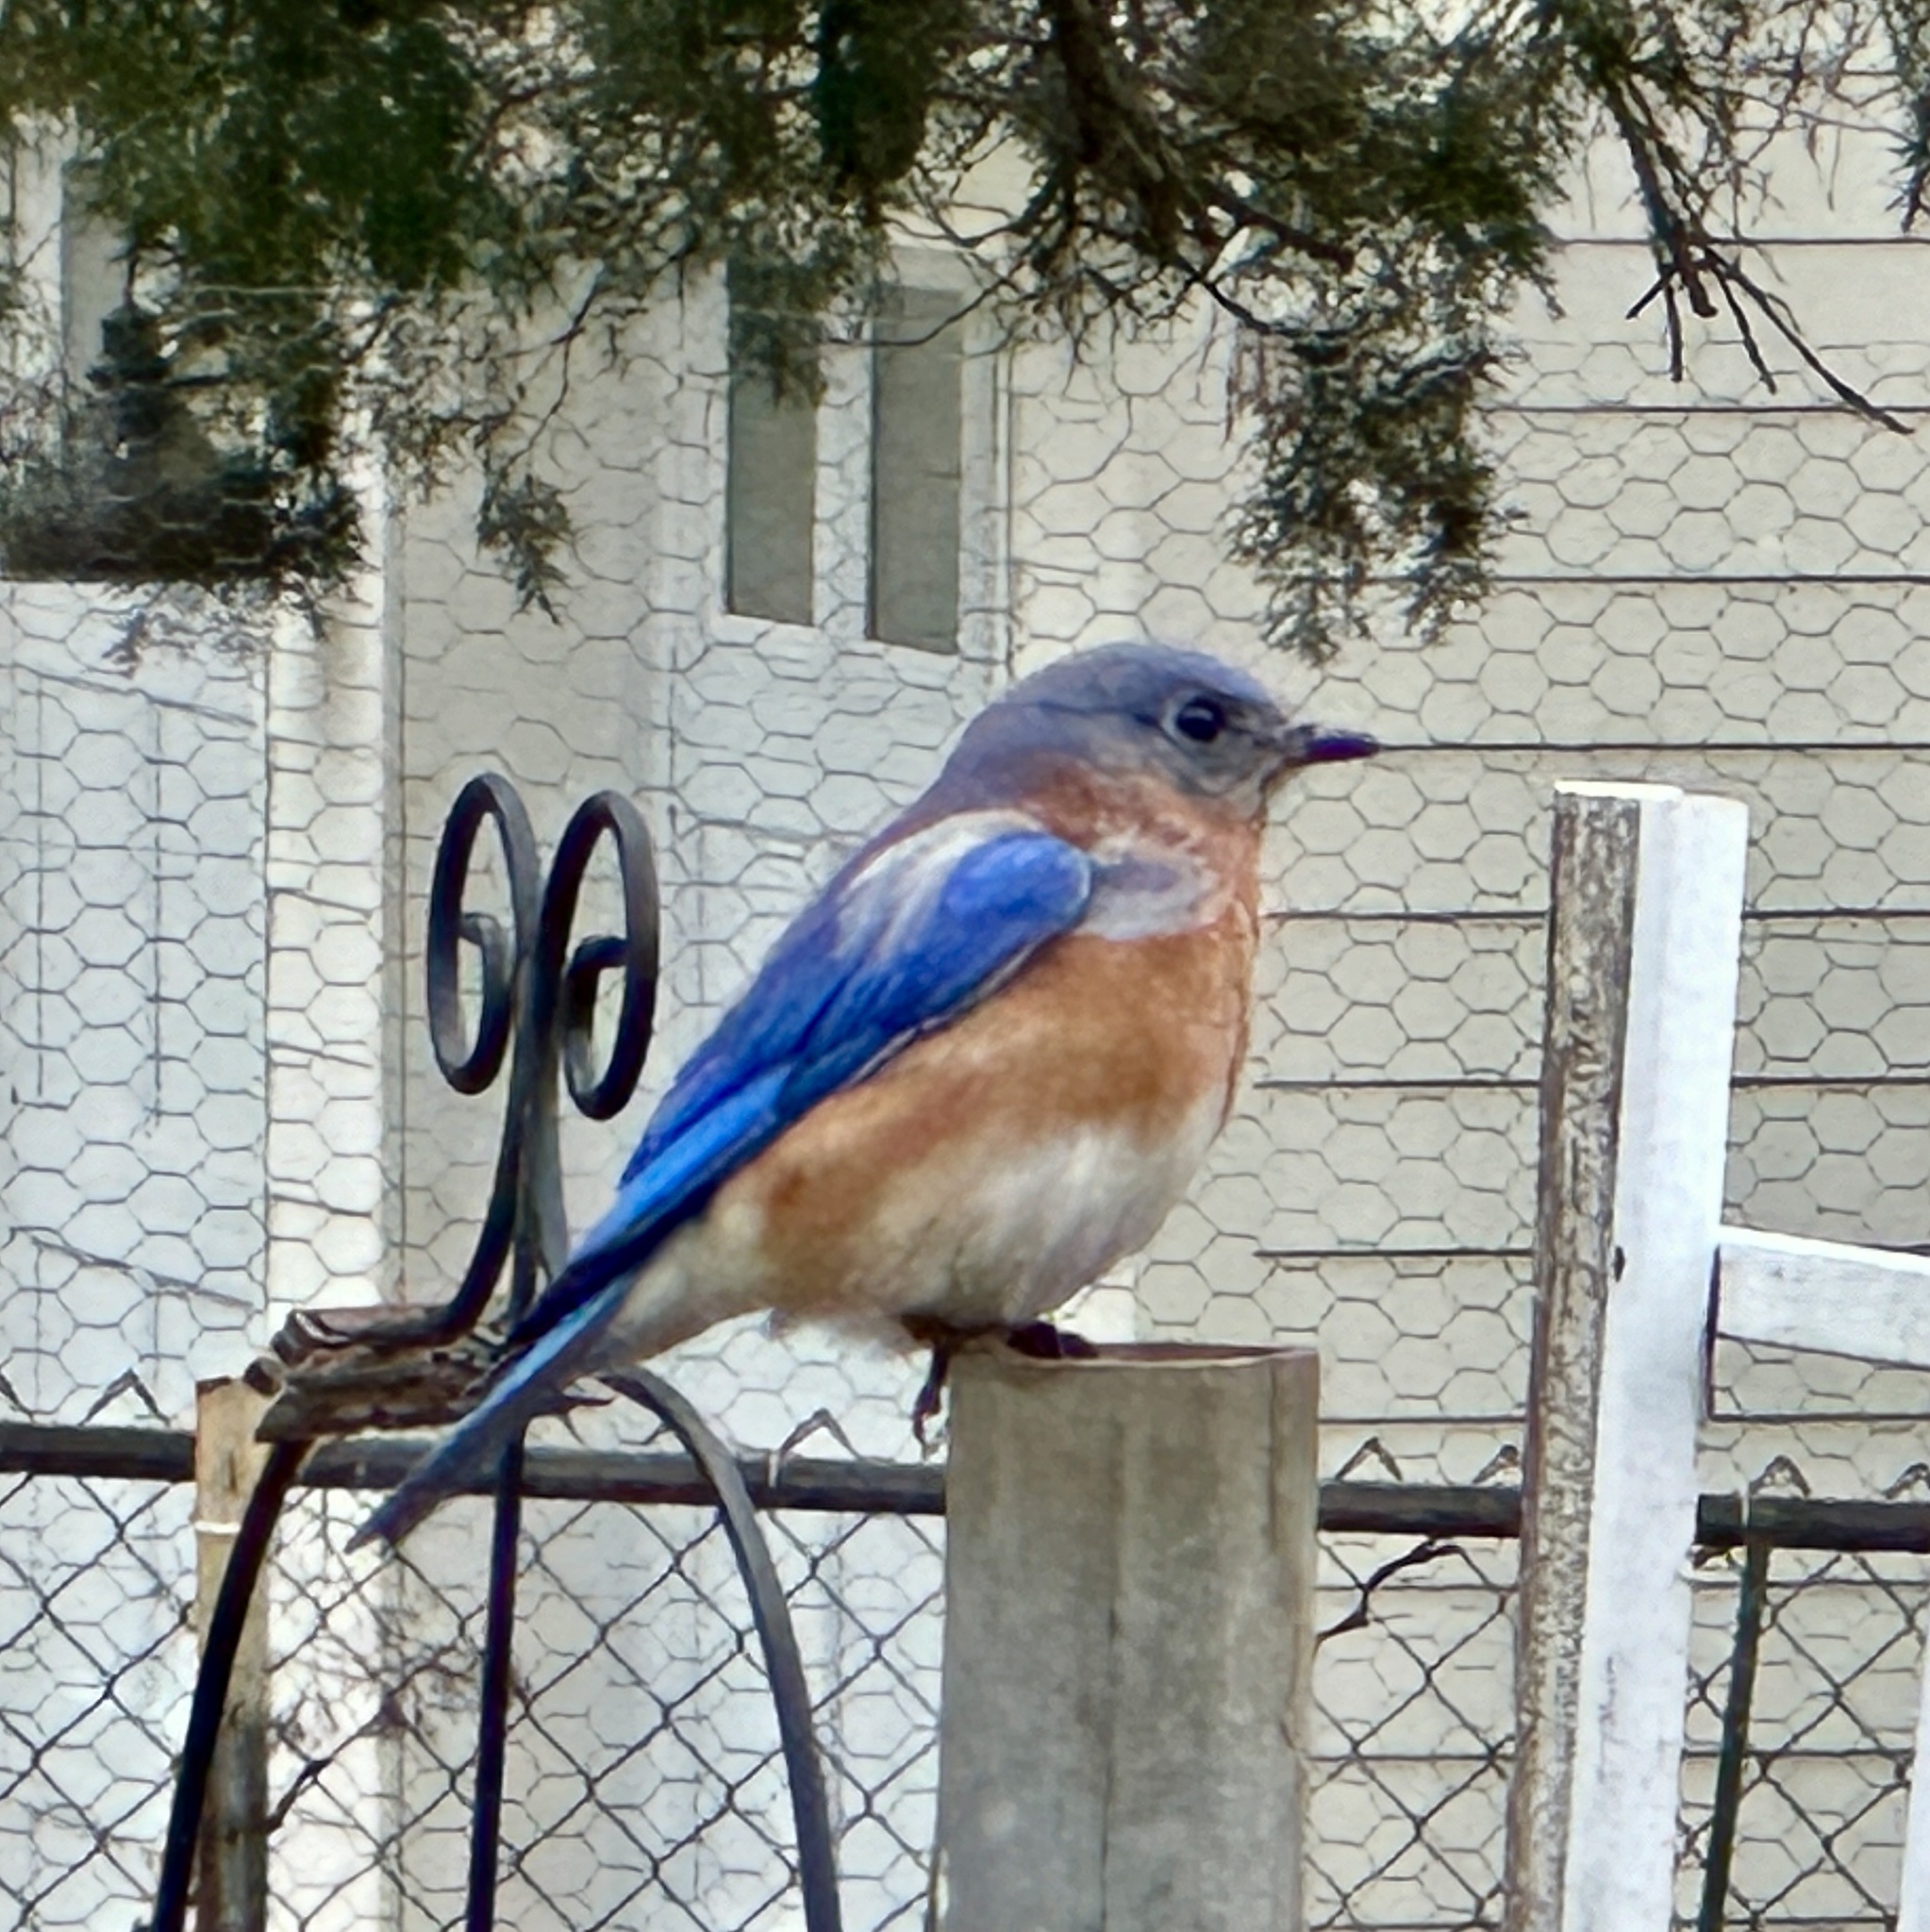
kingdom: Animalia
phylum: Chordata
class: Aves
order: Passeriformes
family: Turdidae
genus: Sialia
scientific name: Sialia sialis
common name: Eastern bluebird
